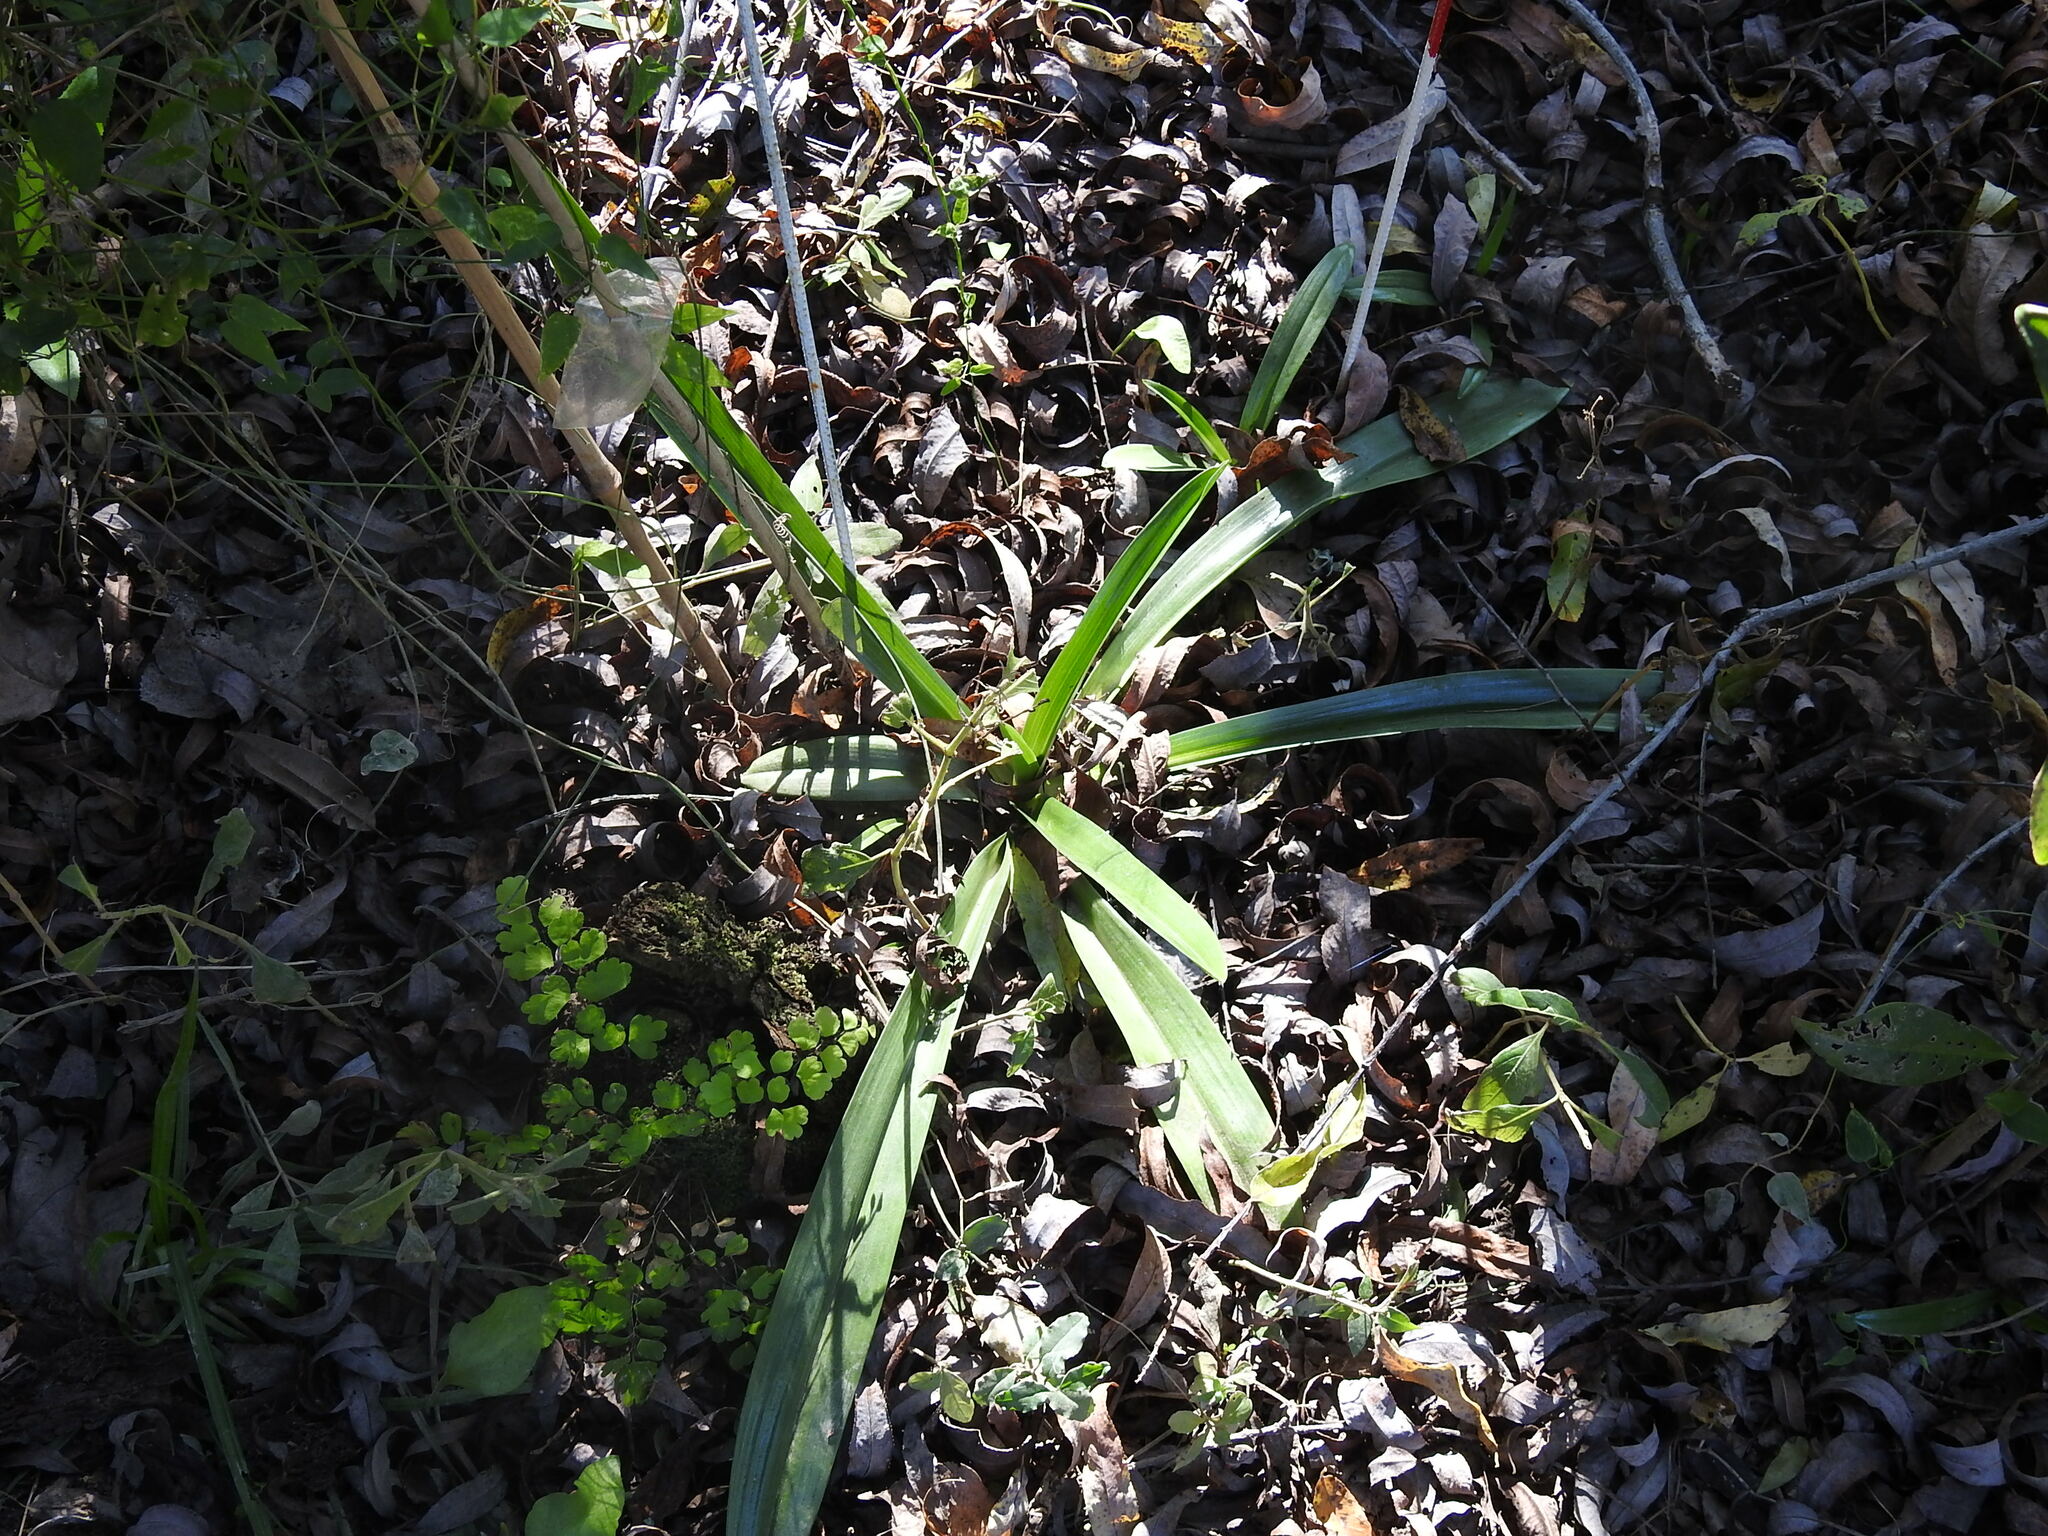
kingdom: Plantae
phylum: Tracheophyta
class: Liliopsida
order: Asparagales
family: Orchidaceae
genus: Chloraea
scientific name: Chloraea membranacea
